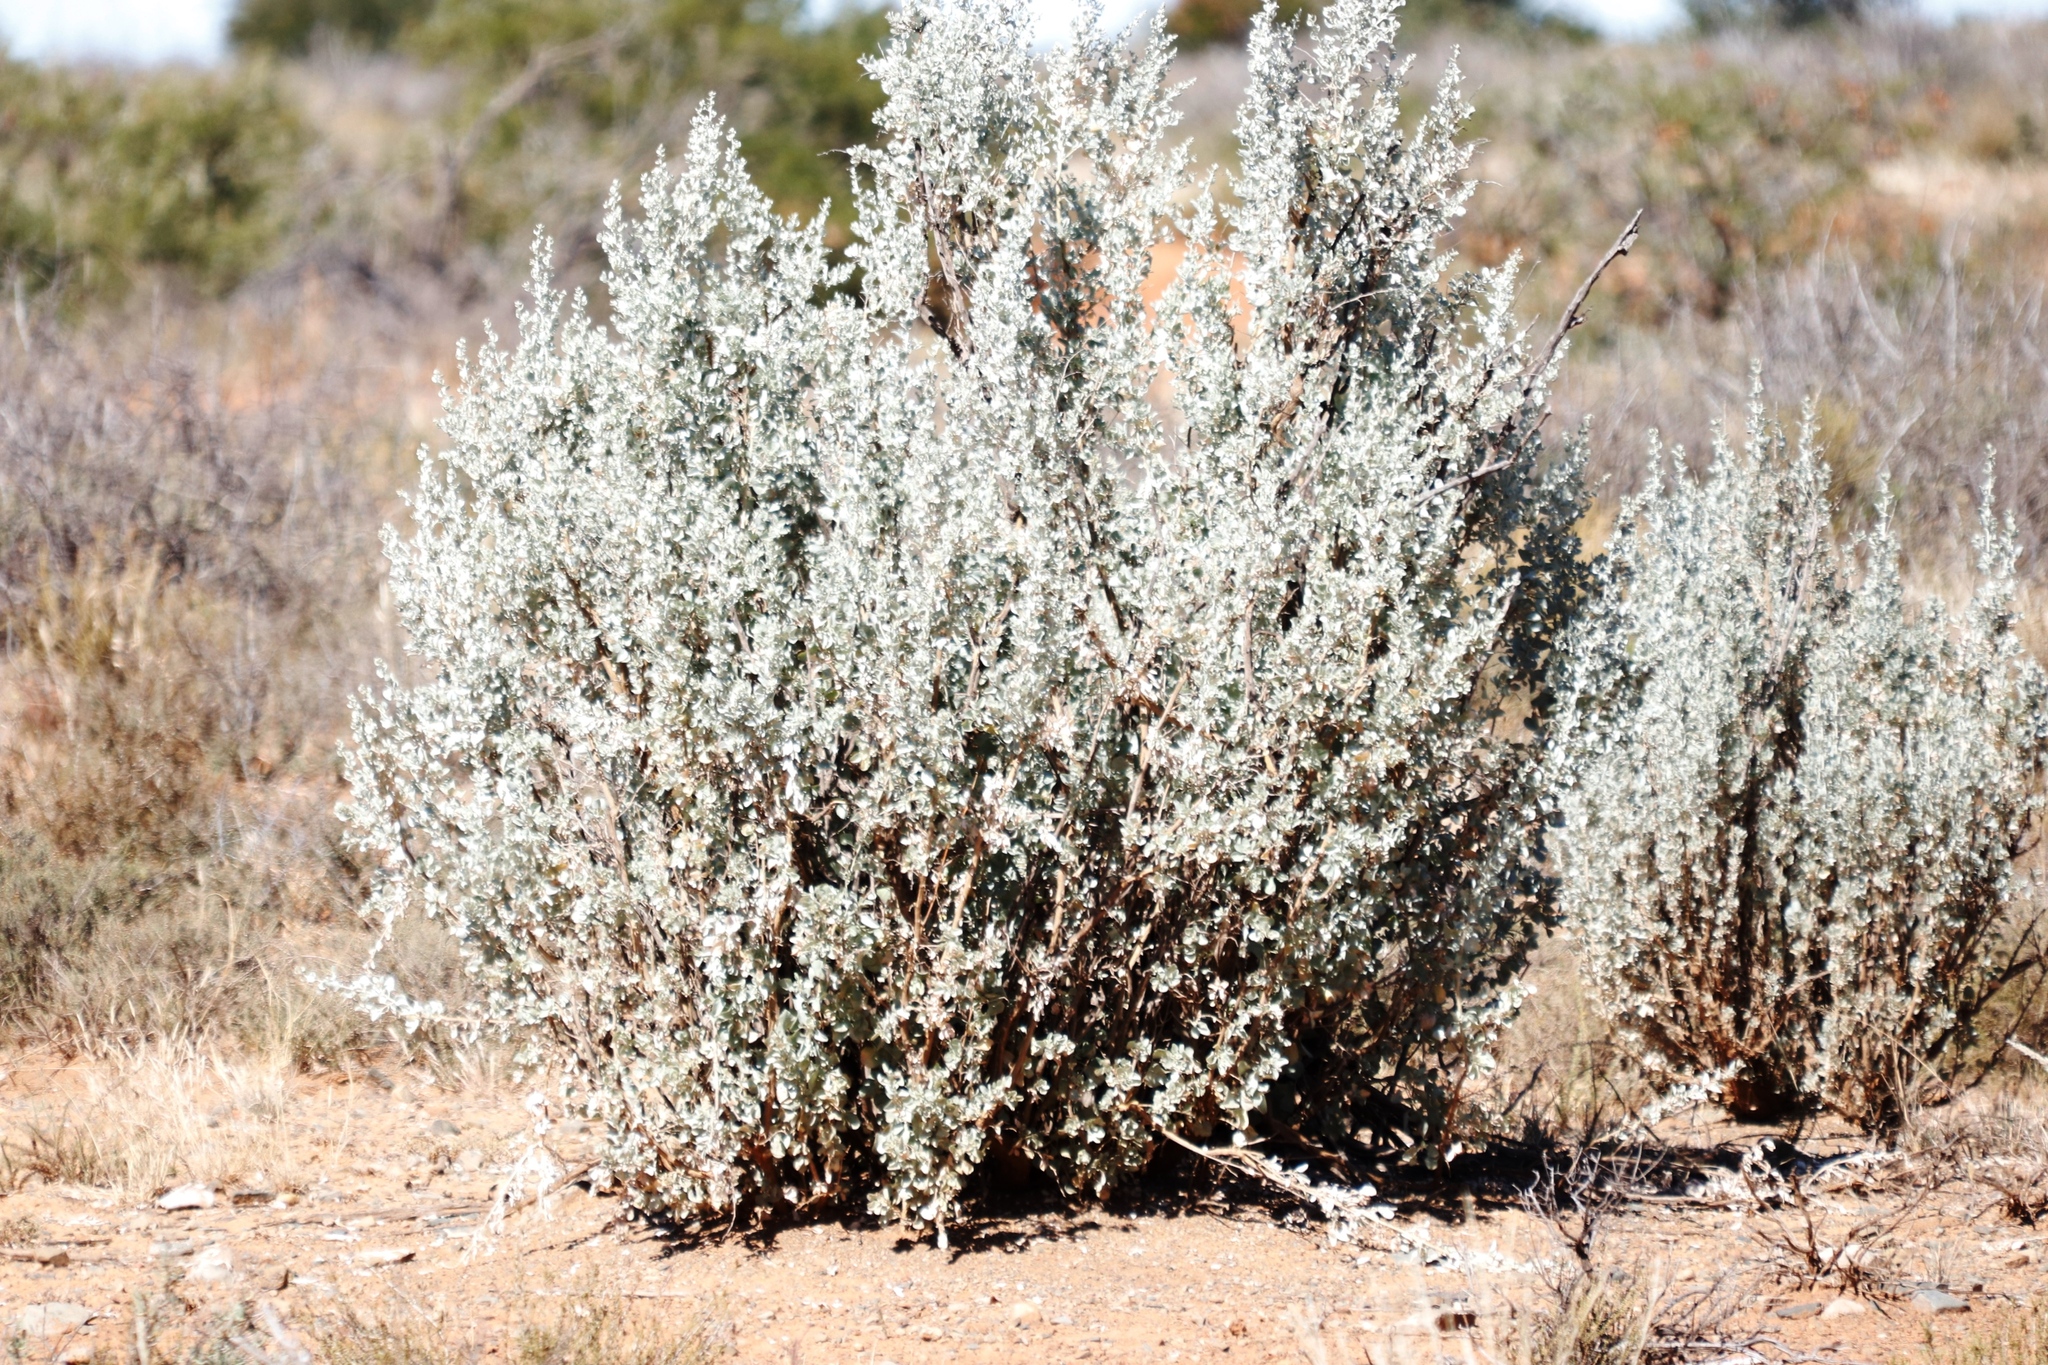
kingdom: Plantae
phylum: Tracheophyta
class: Magnoliopsida
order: Caryophyllales
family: Amaranthaceae
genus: Atriplex
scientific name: Atriplex nummularia
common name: Bluegreen saltbush
